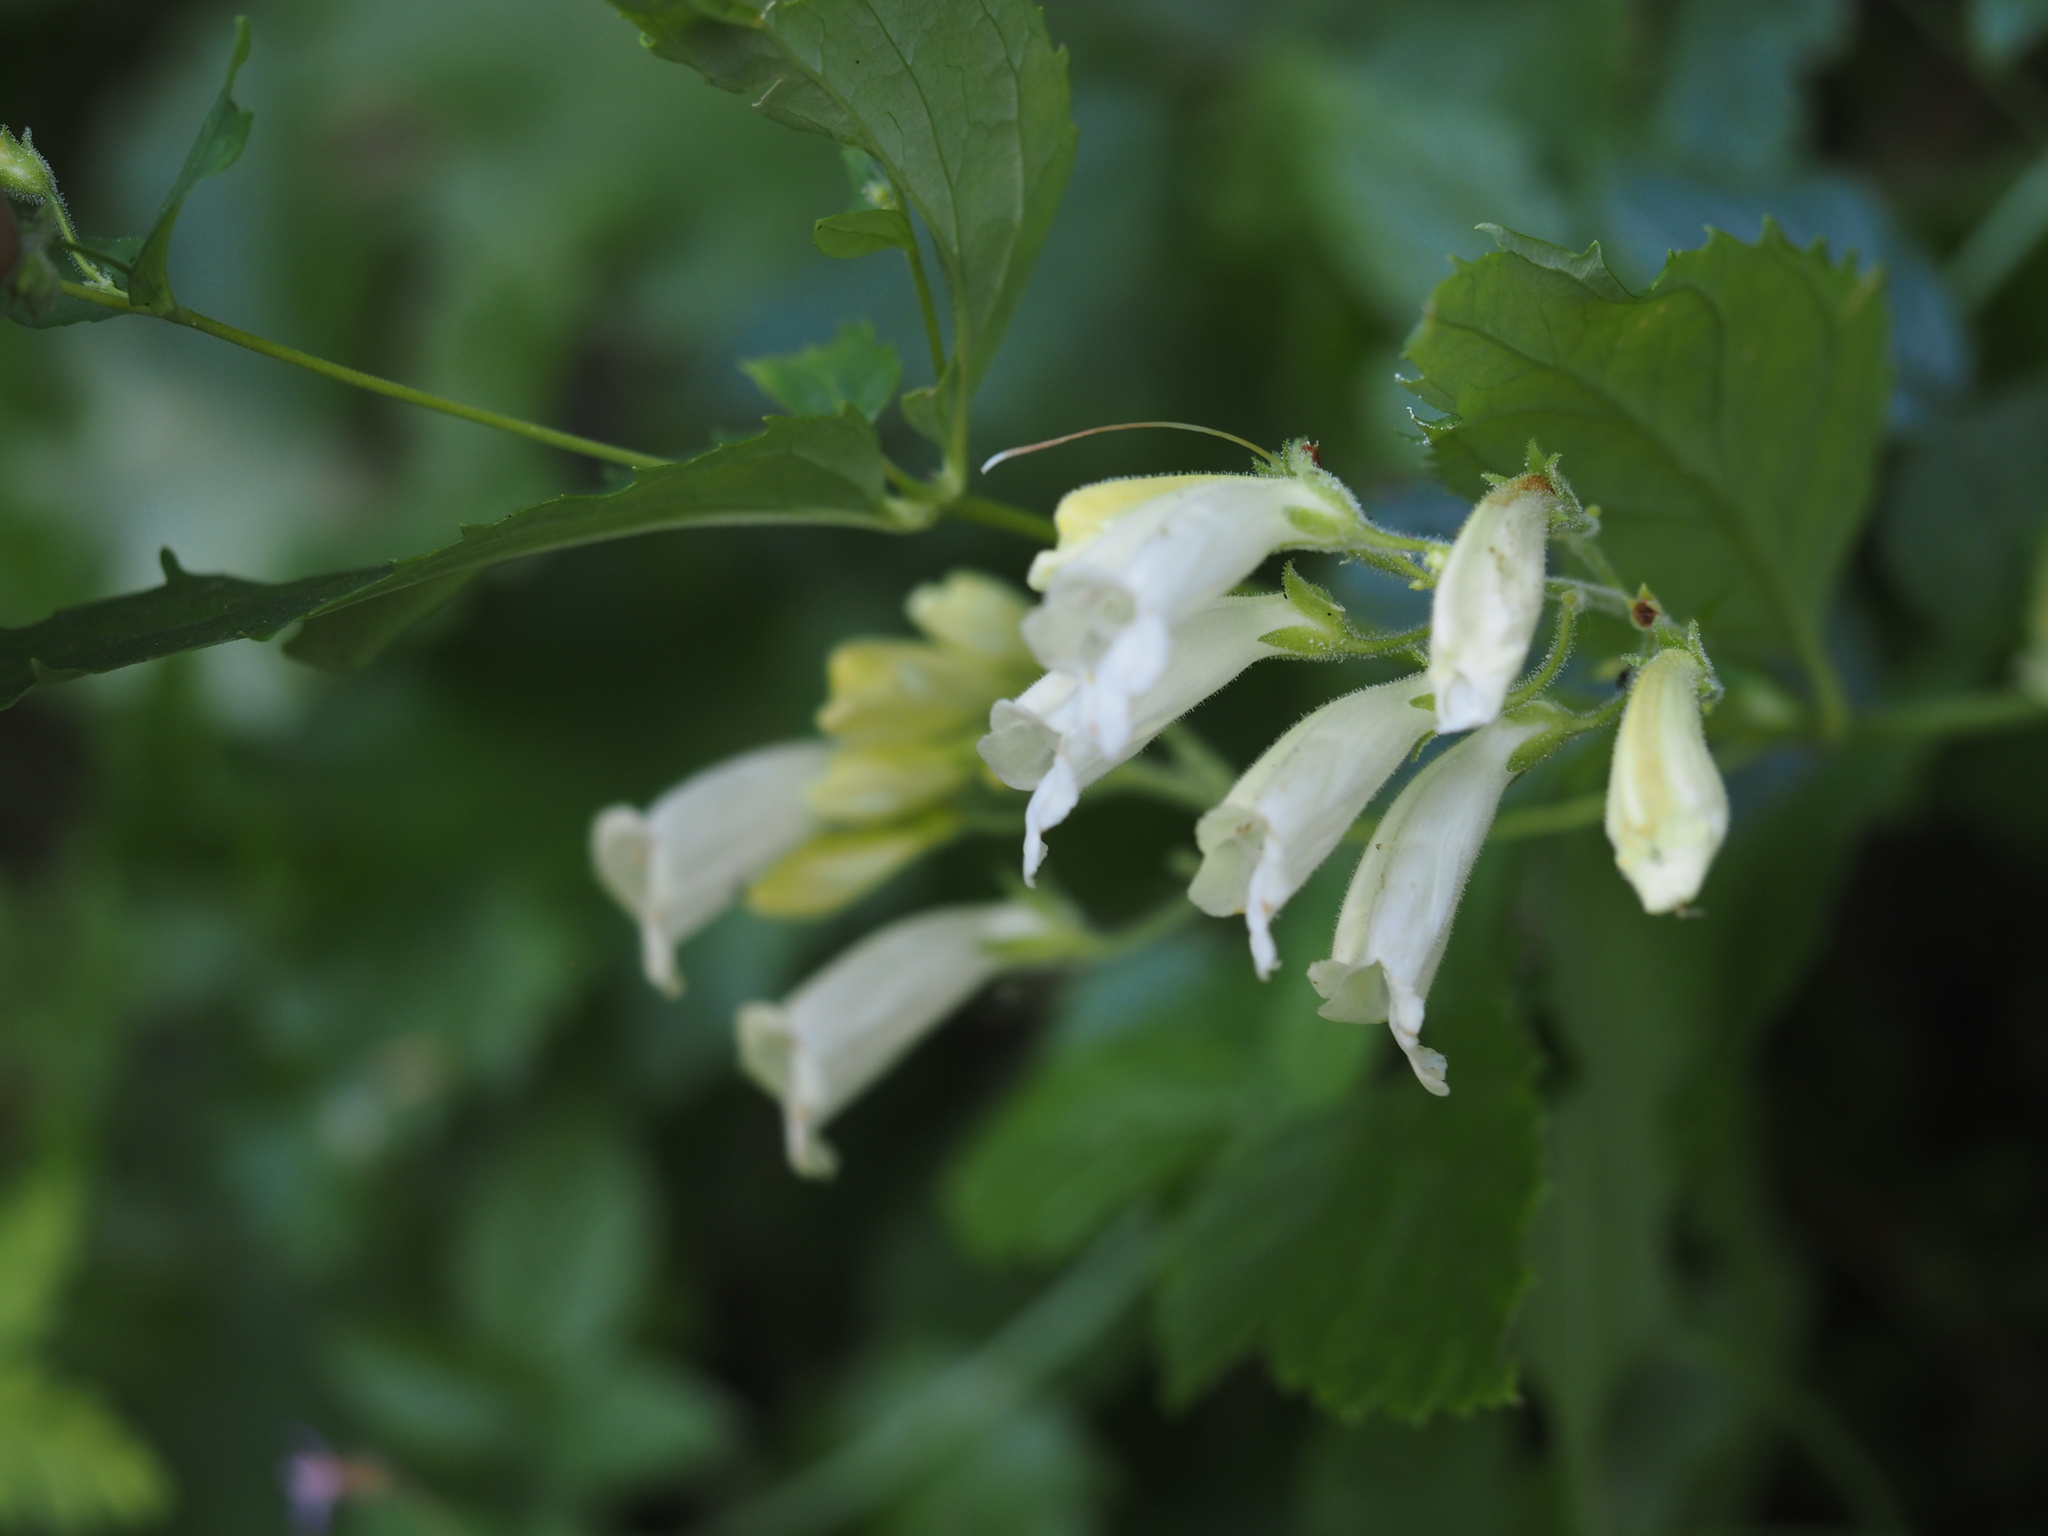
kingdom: Plantae
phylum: Tracheophyta
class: Magnoliopsida
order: Lamiales
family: Plantaginaceae
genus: Nothochelone
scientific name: Nothochelone nemorosa
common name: Woodland beardtongue
